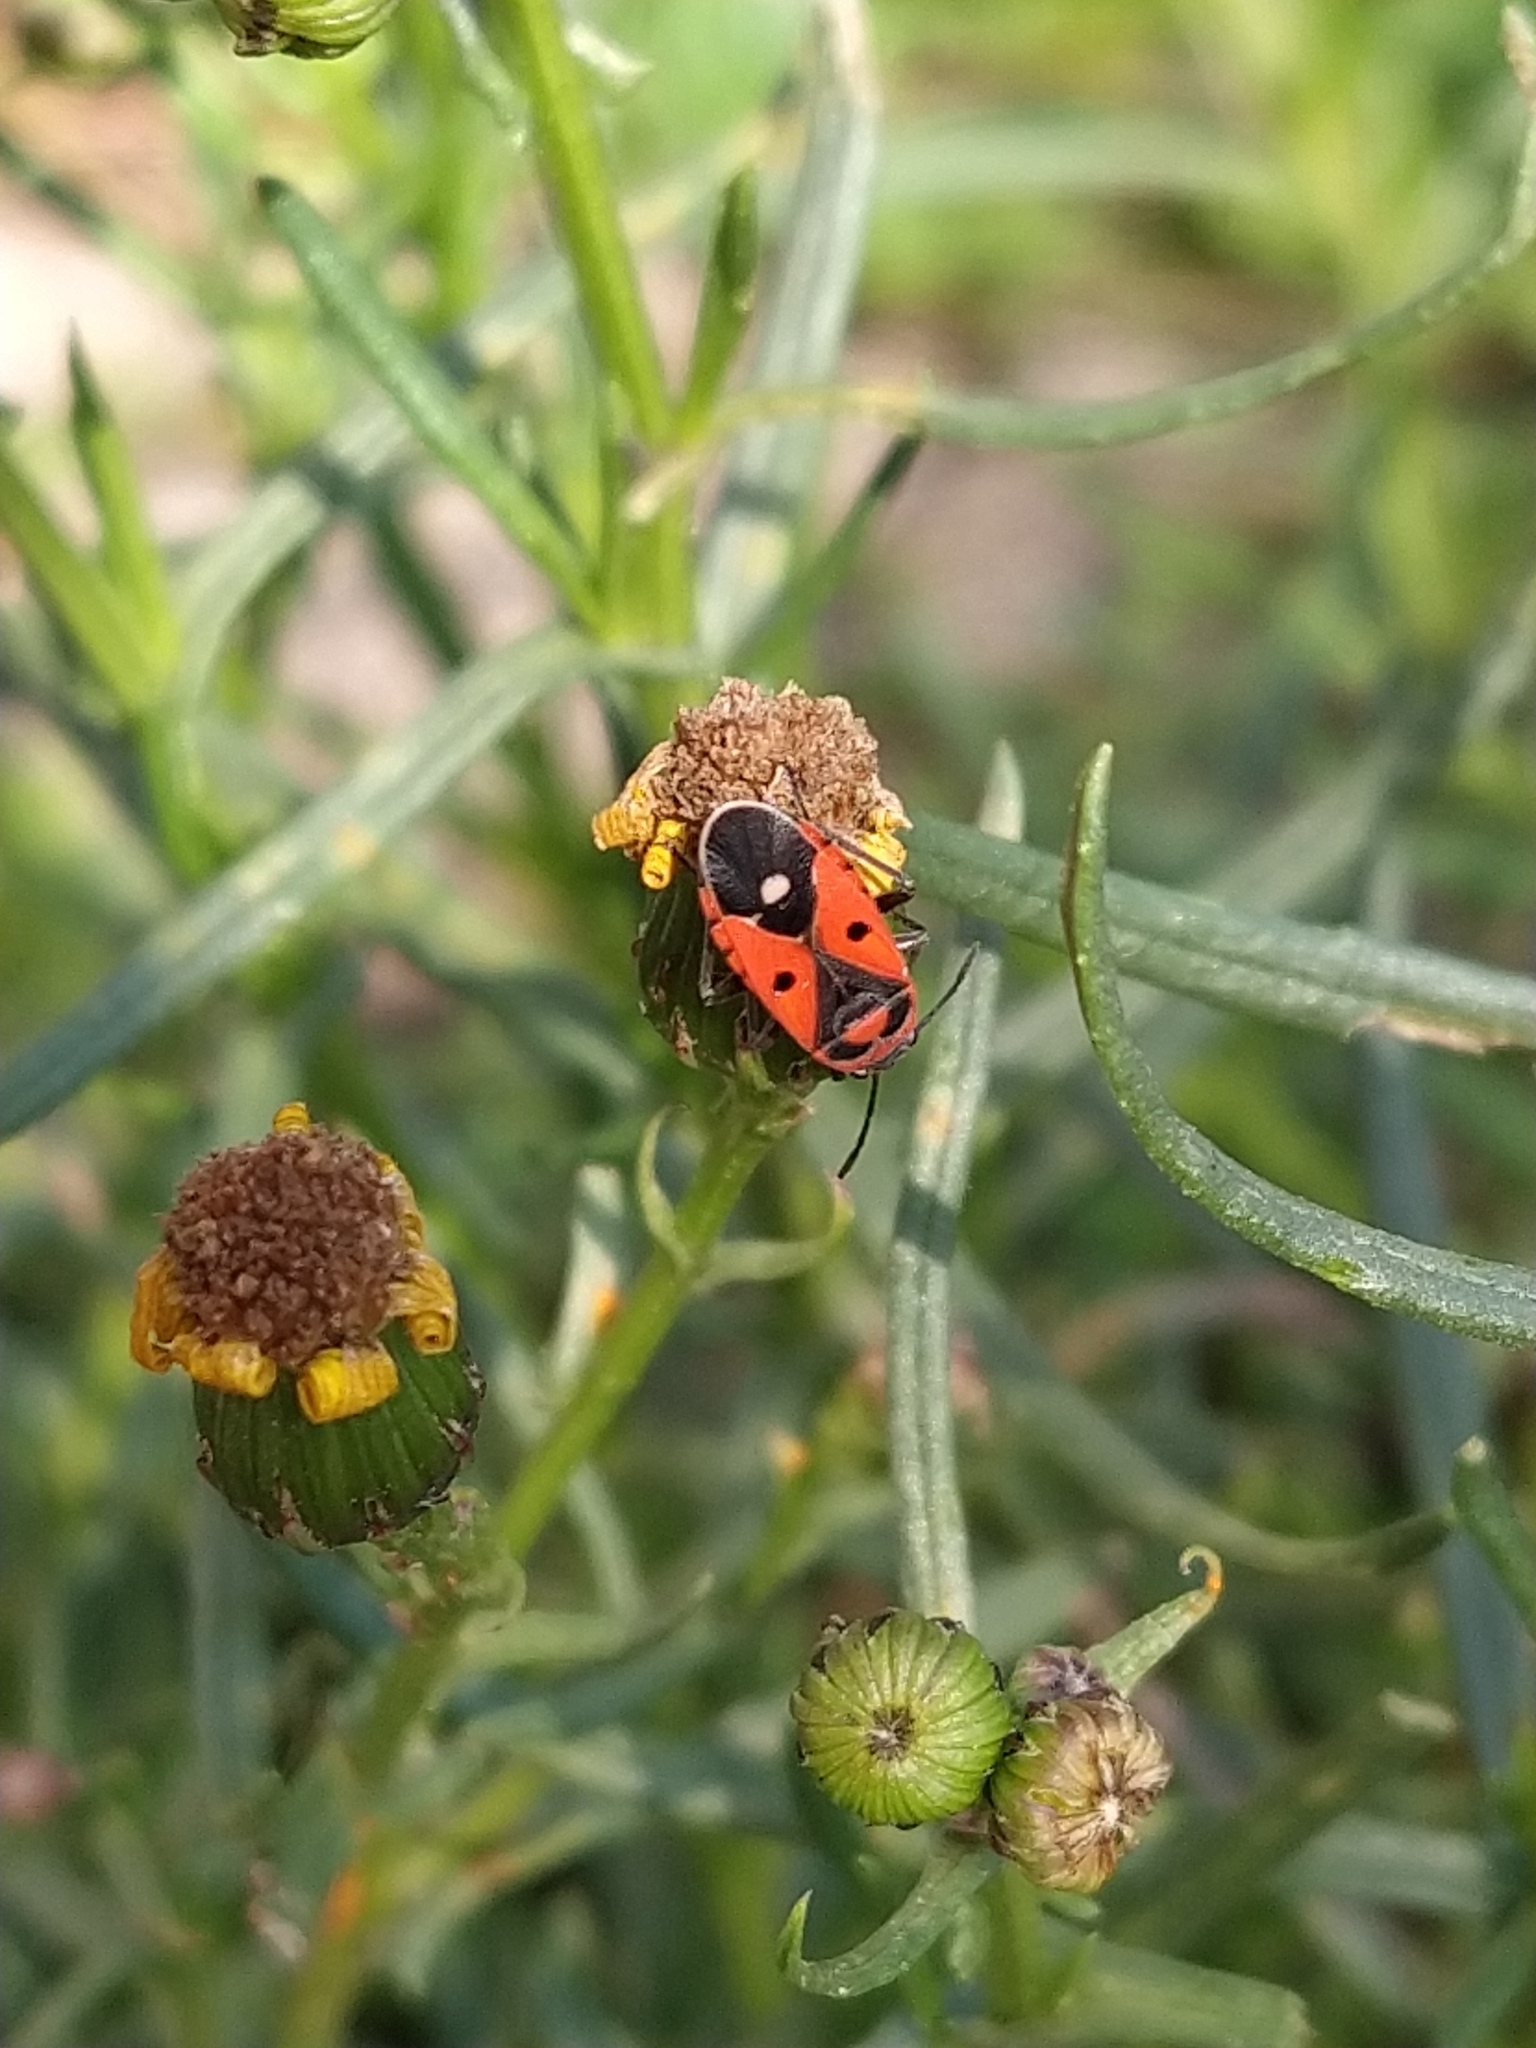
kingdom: Animalia
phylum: Arthropoda
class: Insecta
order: Hemiptera
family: Lygaeidae
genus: Melanocoryphus
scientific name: Melanocoryphus albomaculatus
